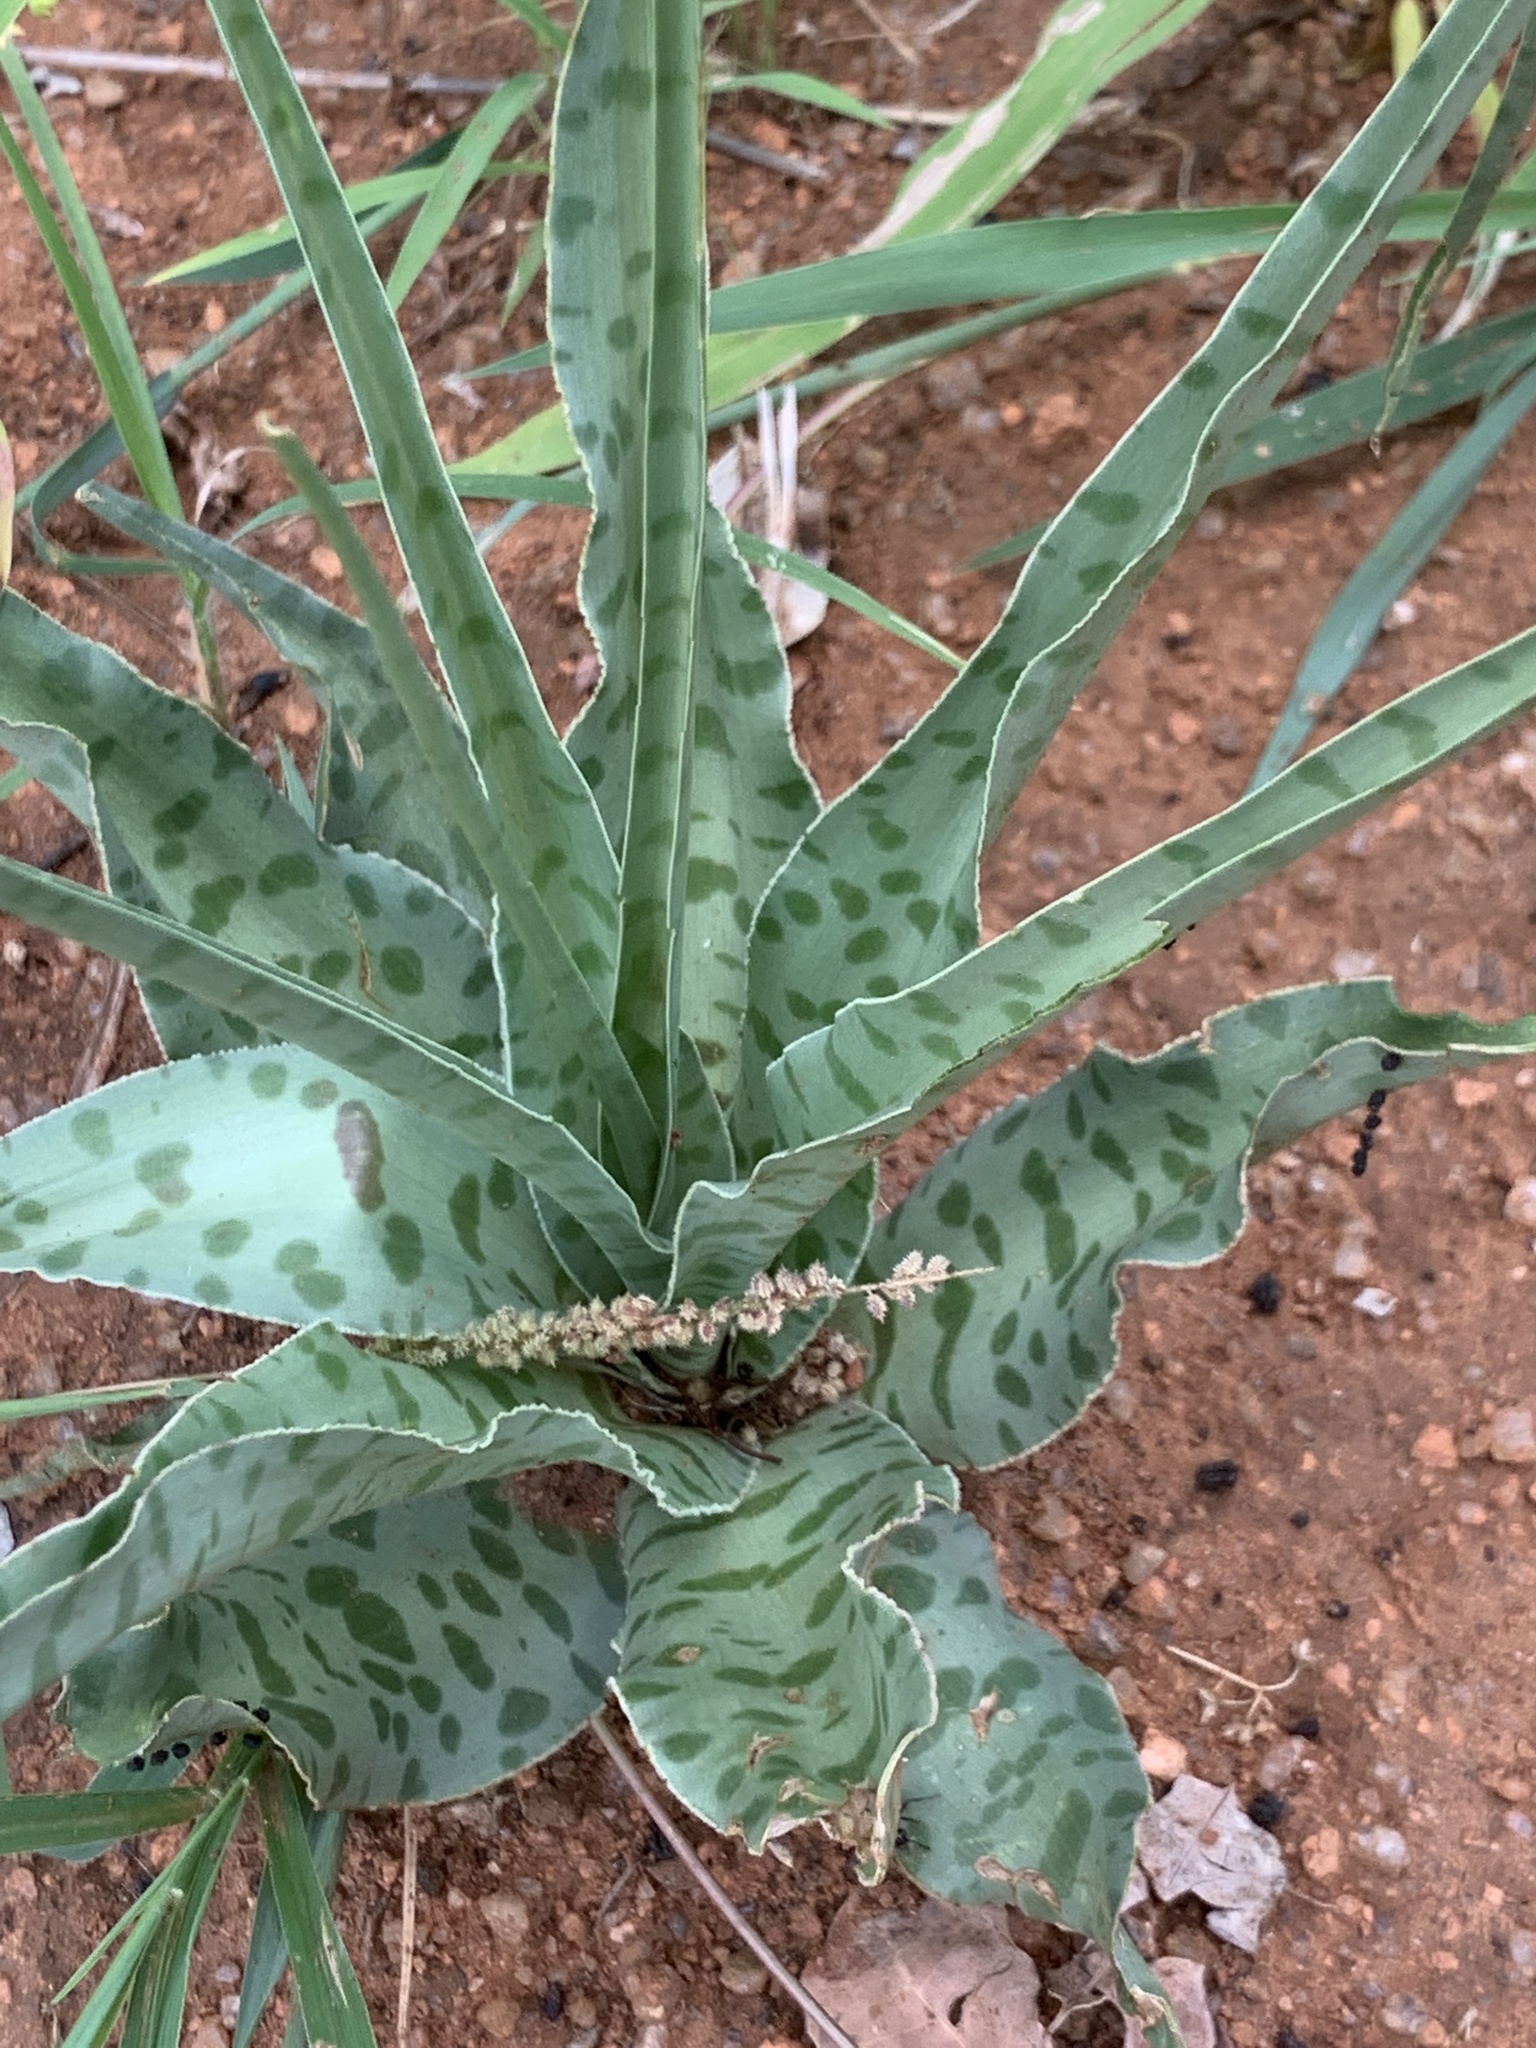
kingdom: Plantae
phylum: Tracheophyta
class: Liliopsida
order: Asparagales
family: Asparagaceae
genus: Ledebouria
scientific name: Ledebouria inquinata
